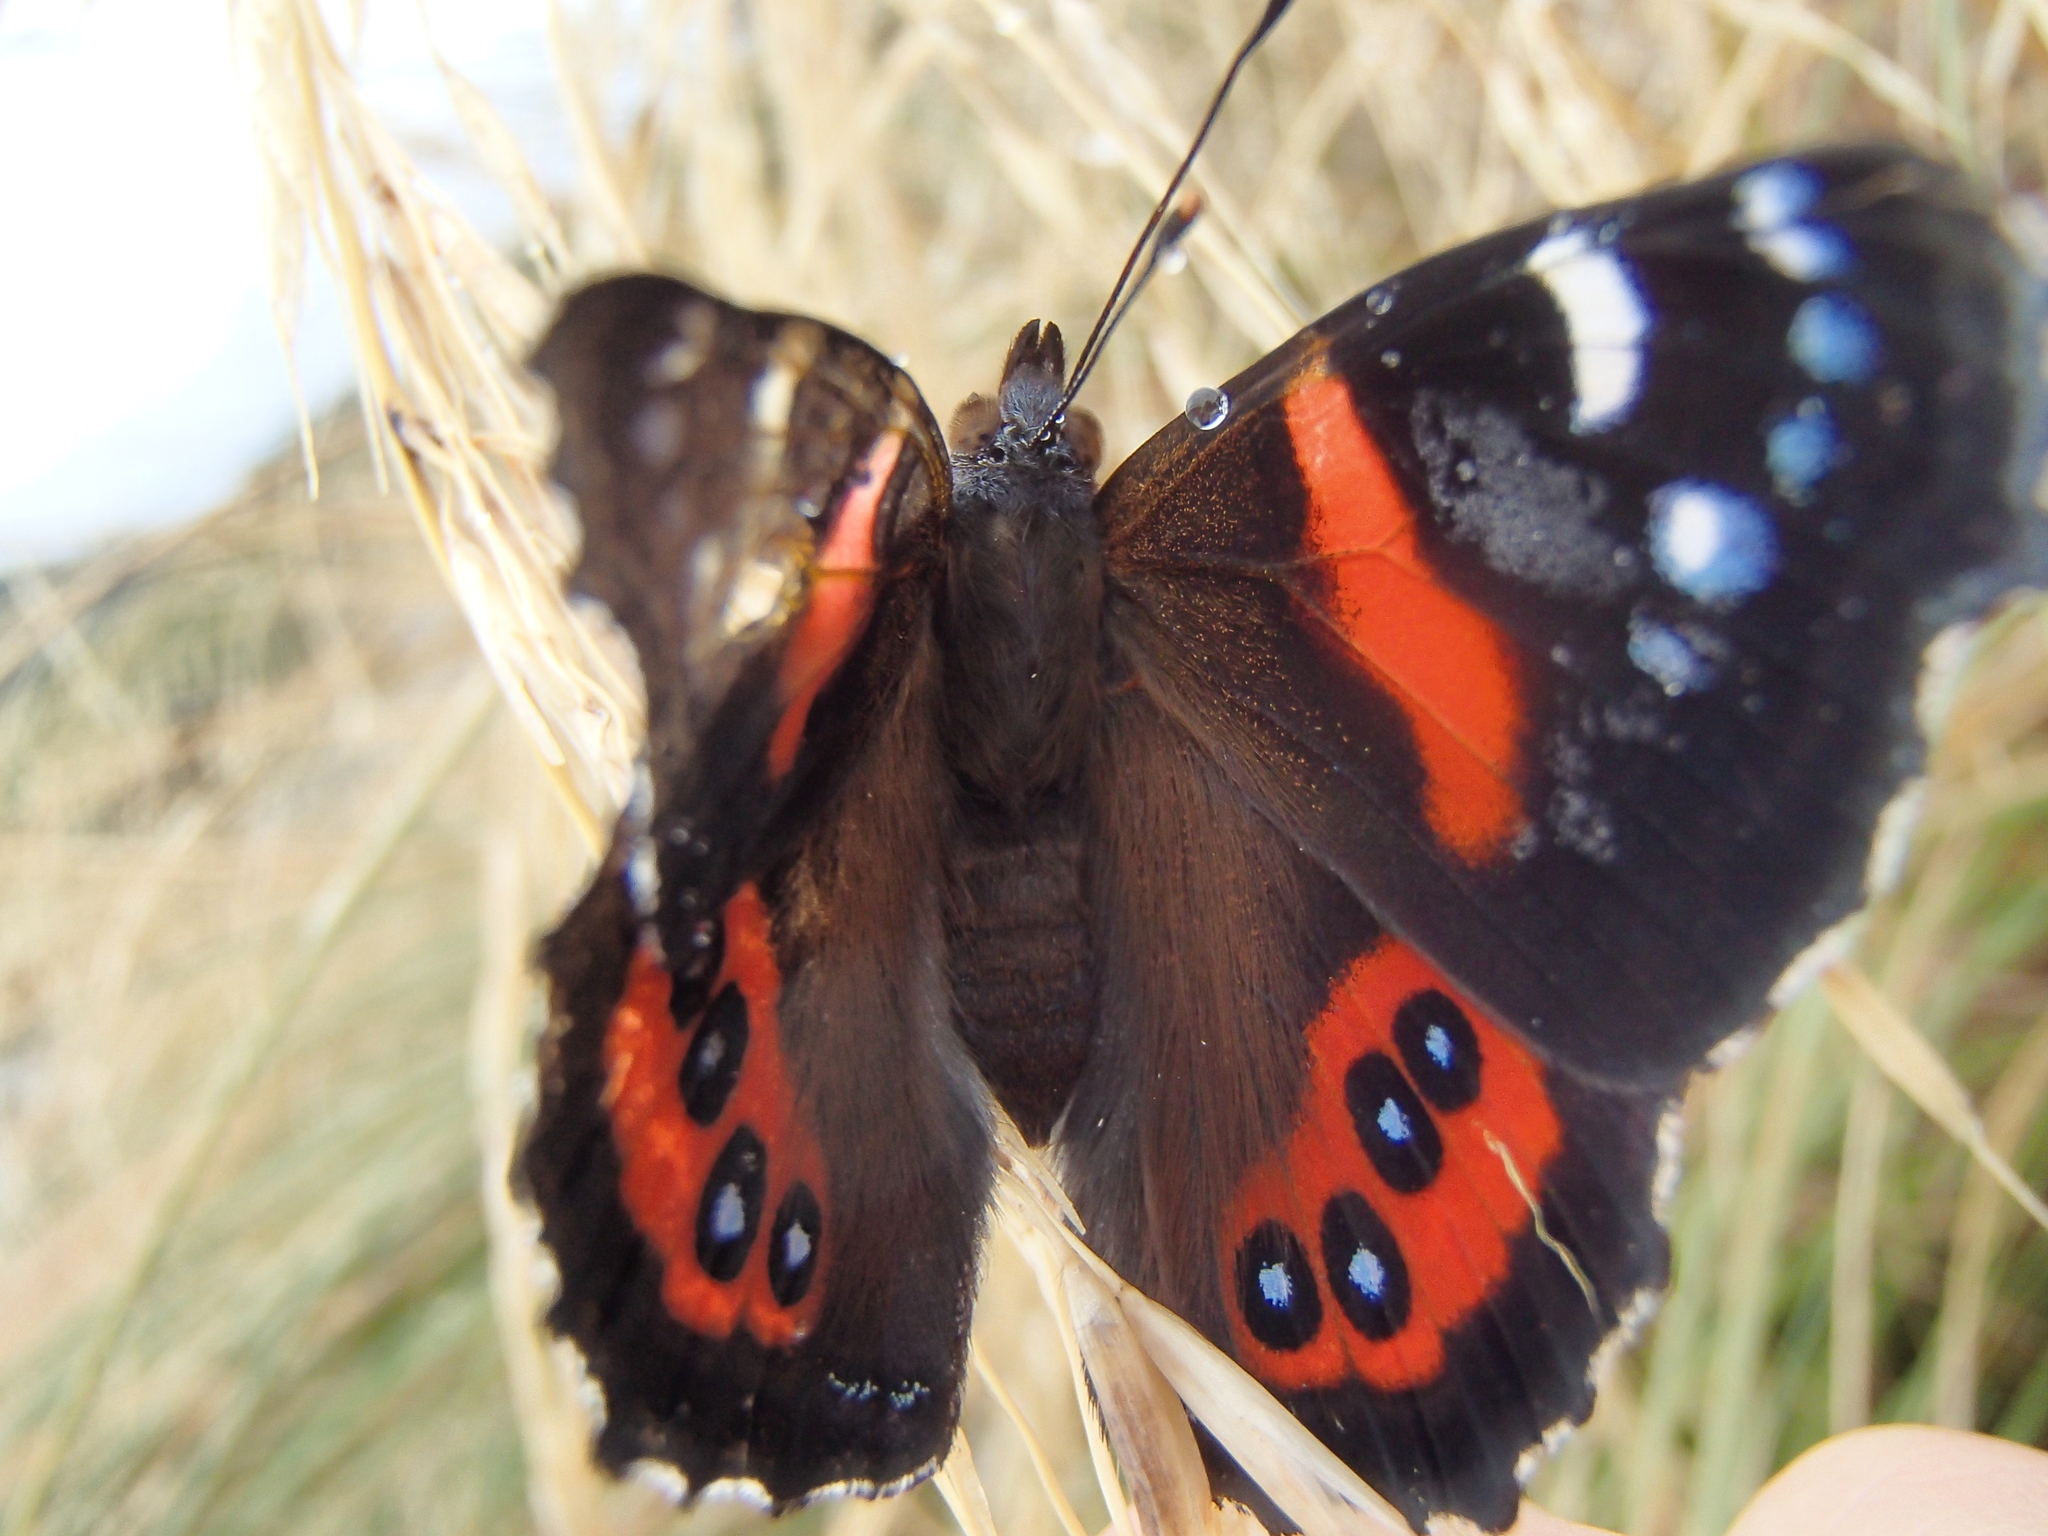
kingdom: Animalia
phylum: Arthropoda
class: Insecta
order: Lepidoptera
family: Nymphalidae
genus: Vanessa
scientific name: Vanessa gonerilla
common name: New zealand red admiral
